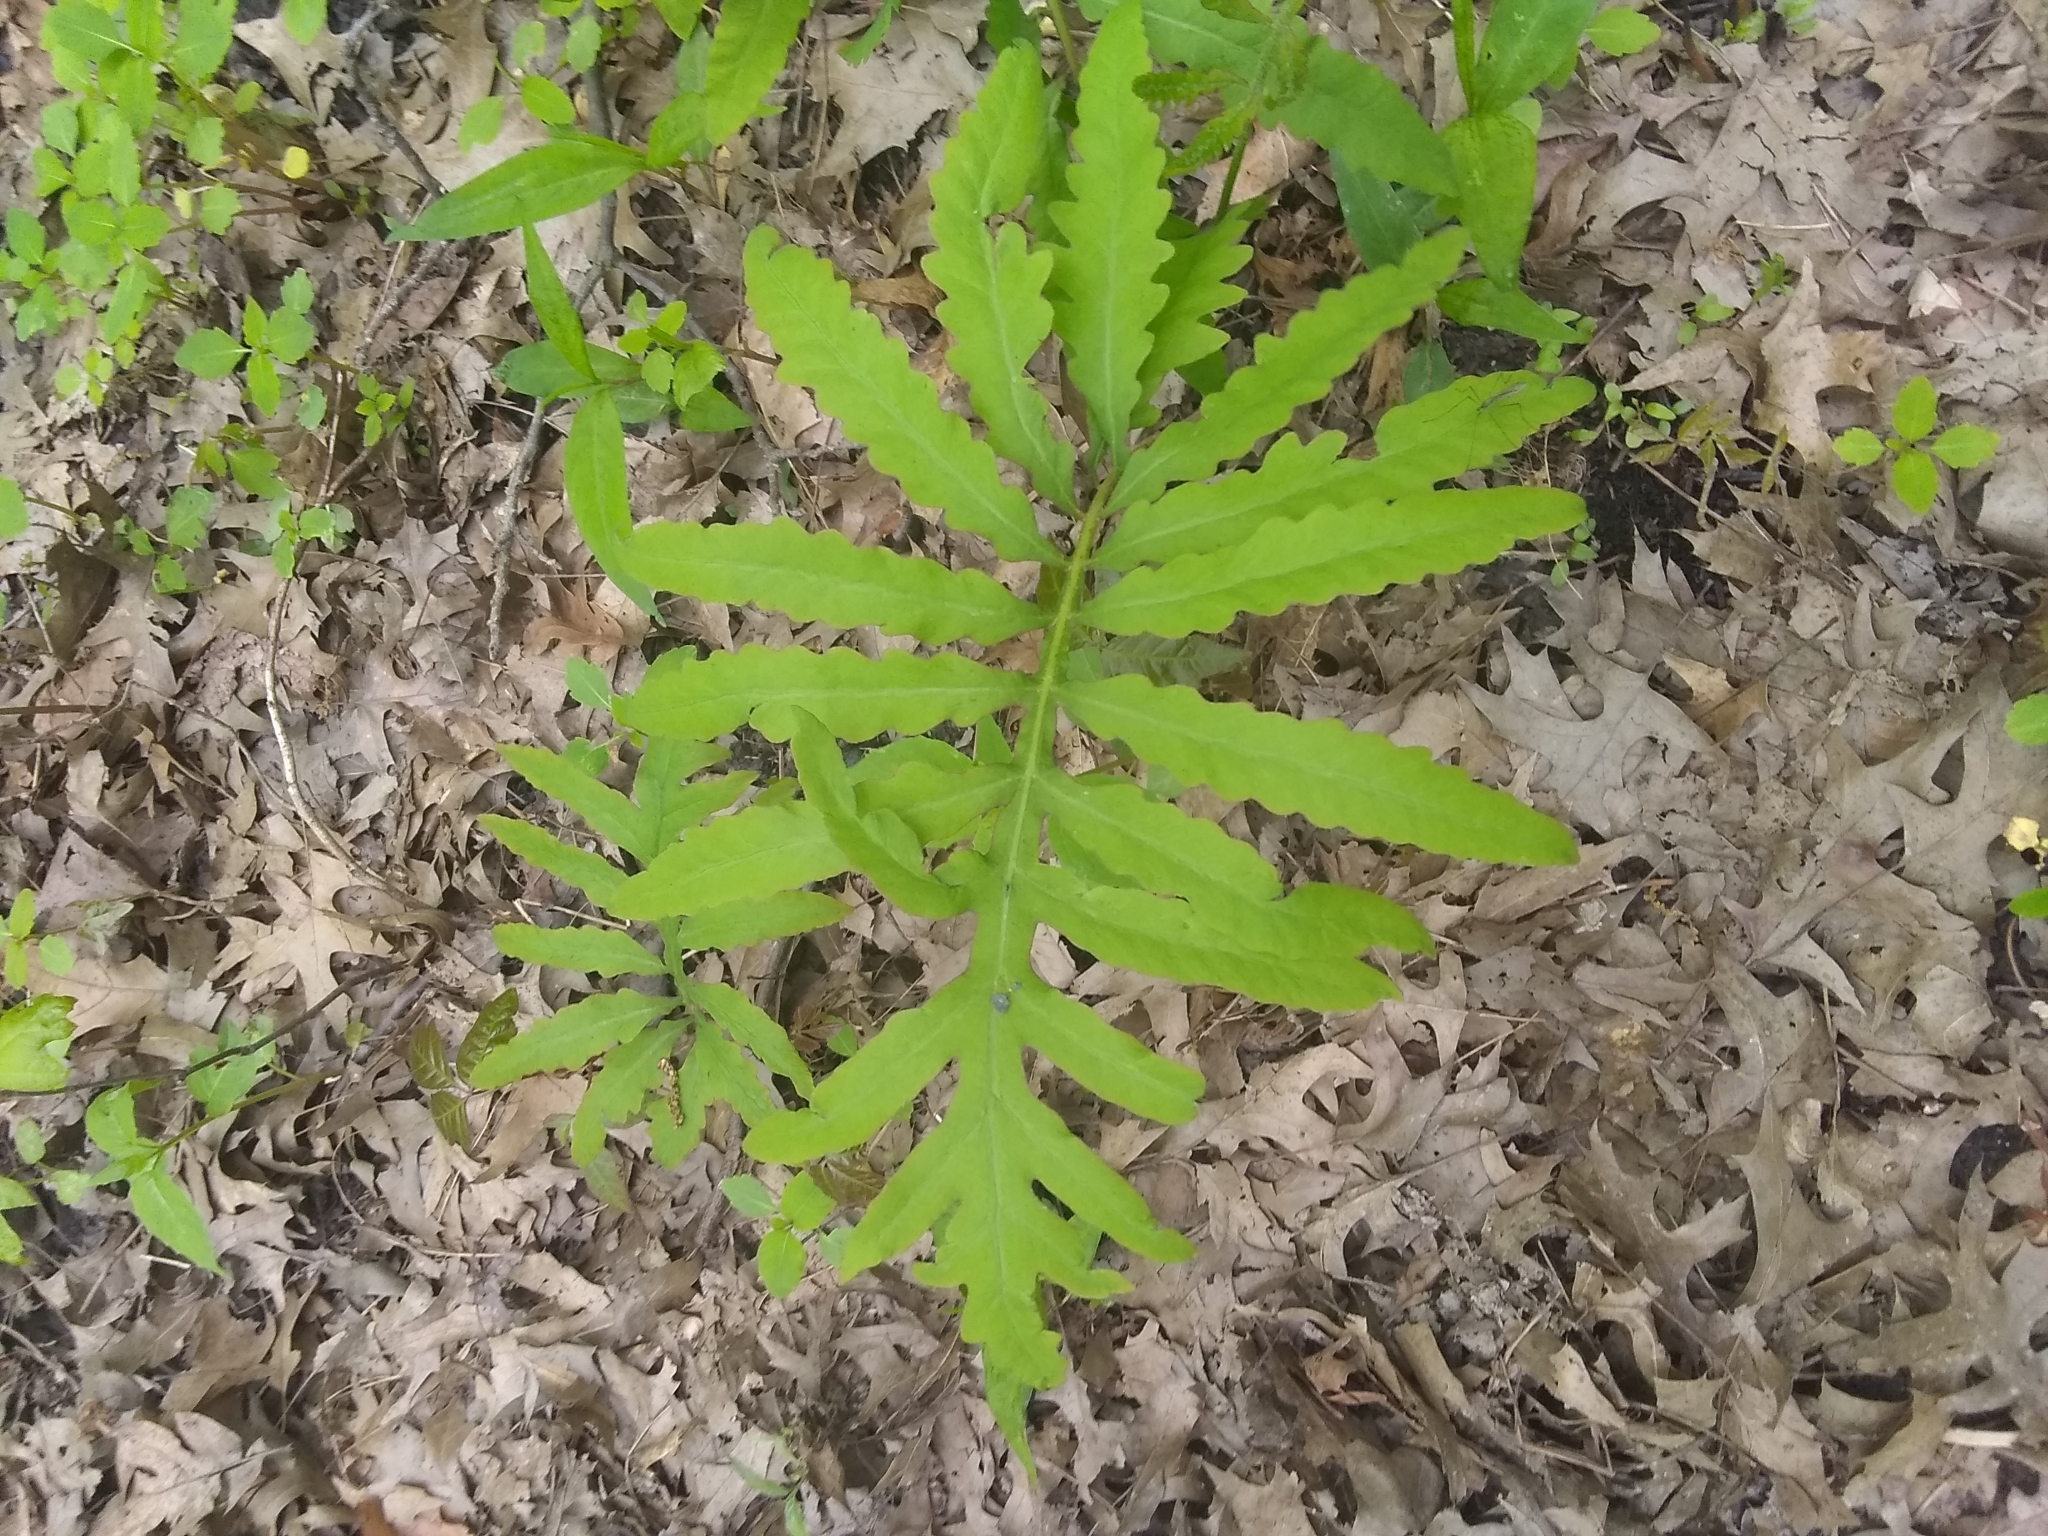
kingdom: Plantae
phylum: Tracheophyta
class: Polypodiopsida
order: Polypodiales
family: Onocleaceae
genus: Onoclea
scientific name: Onoclea sensibilis
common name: Sensitive fern
